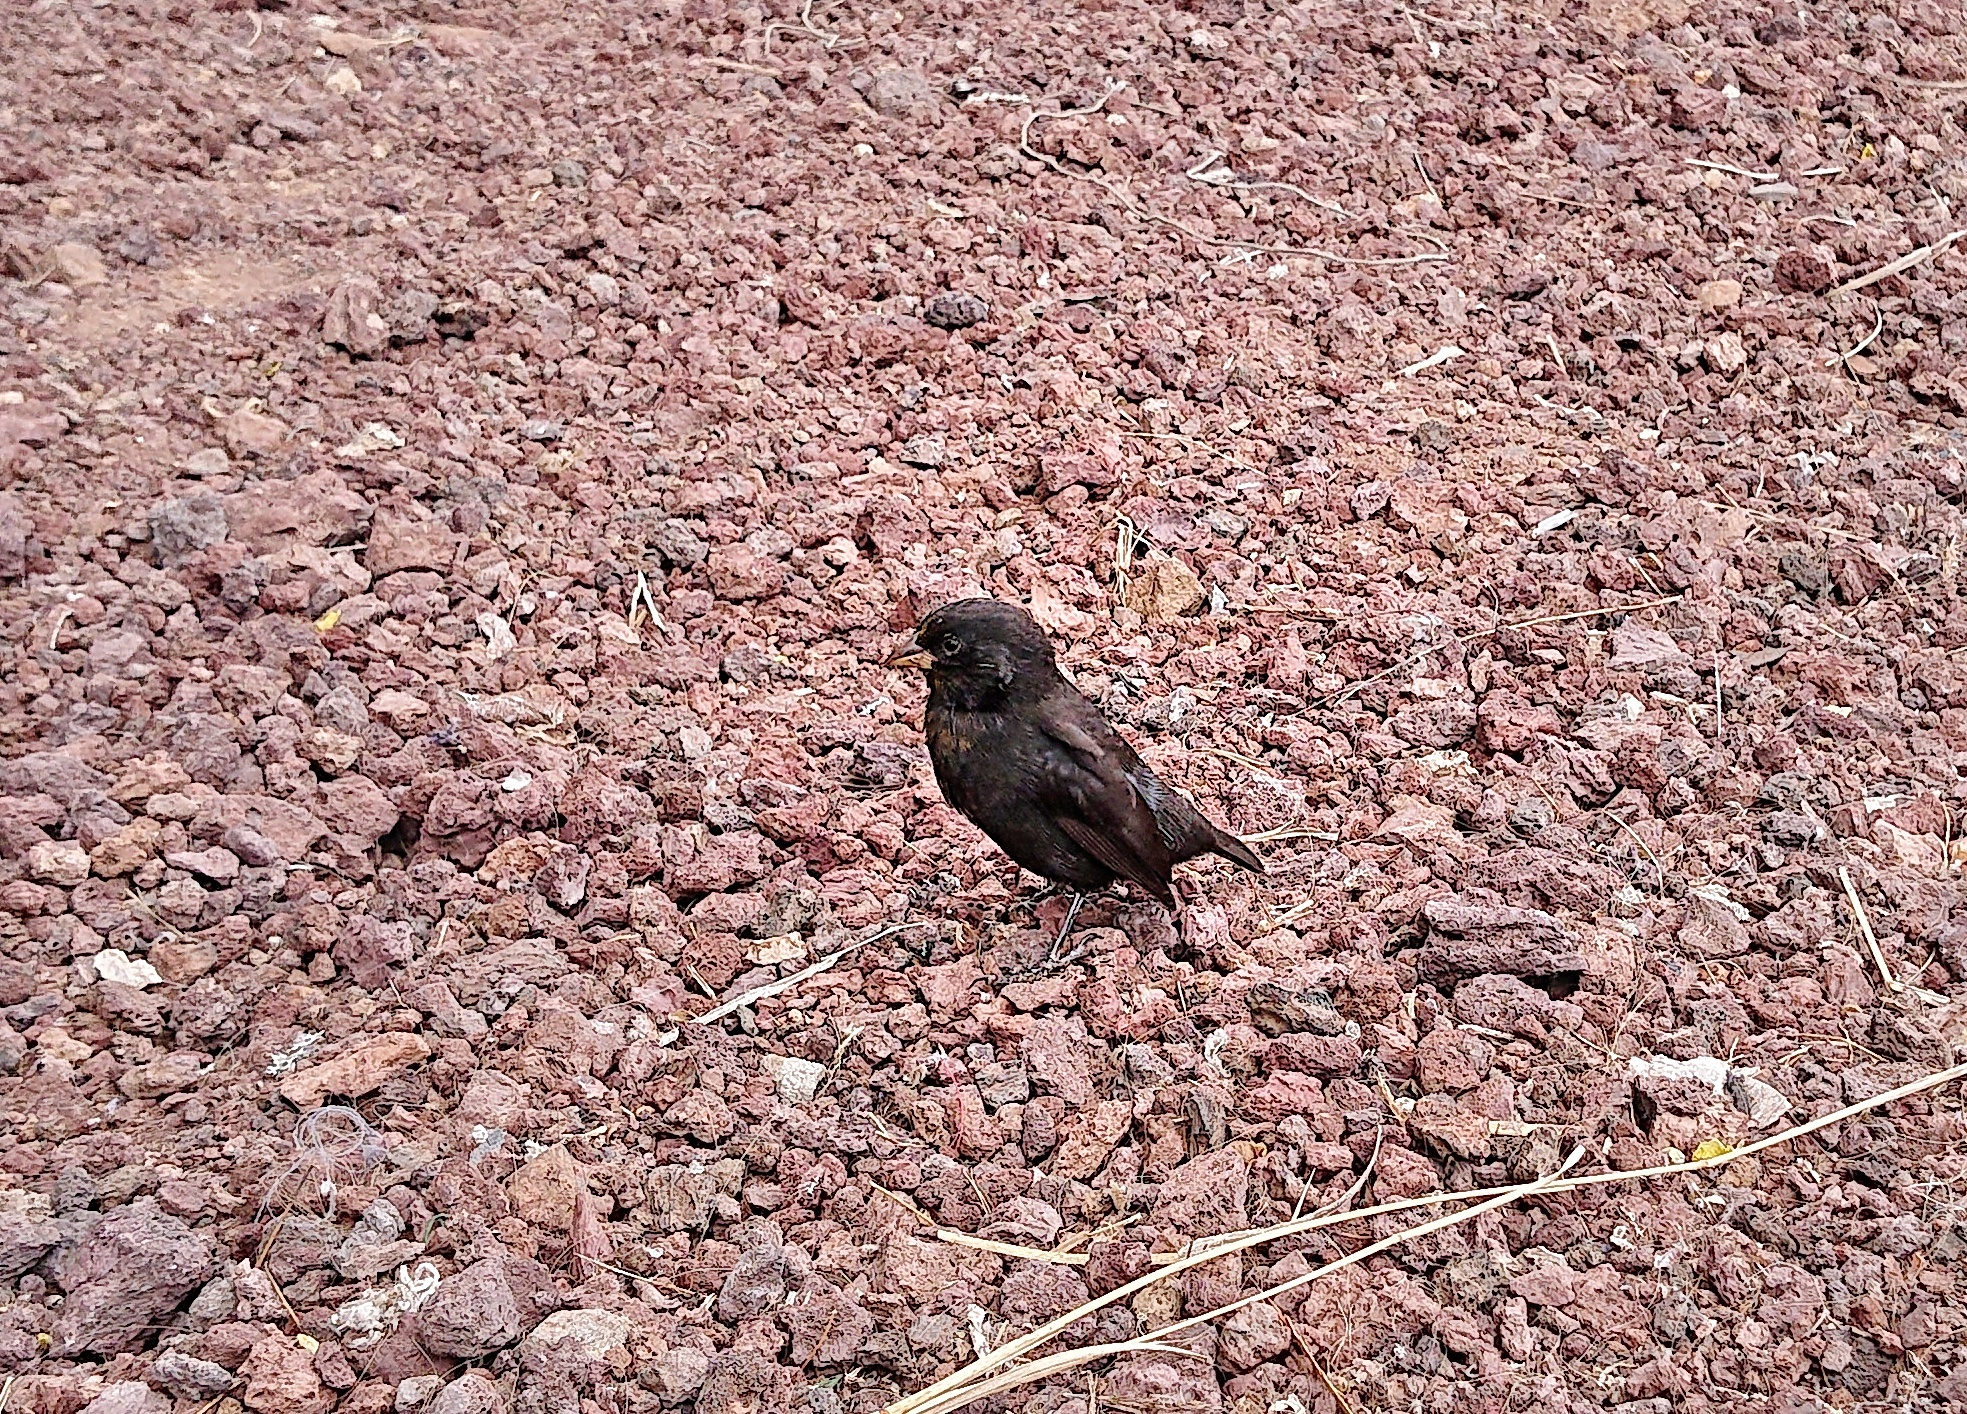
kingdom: Animalia
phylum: Chordata
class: Aves
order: Passeriformes
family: Thraupidae
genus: Geospiza
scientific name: Geospiza fuliginosa
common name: Small ground finch
